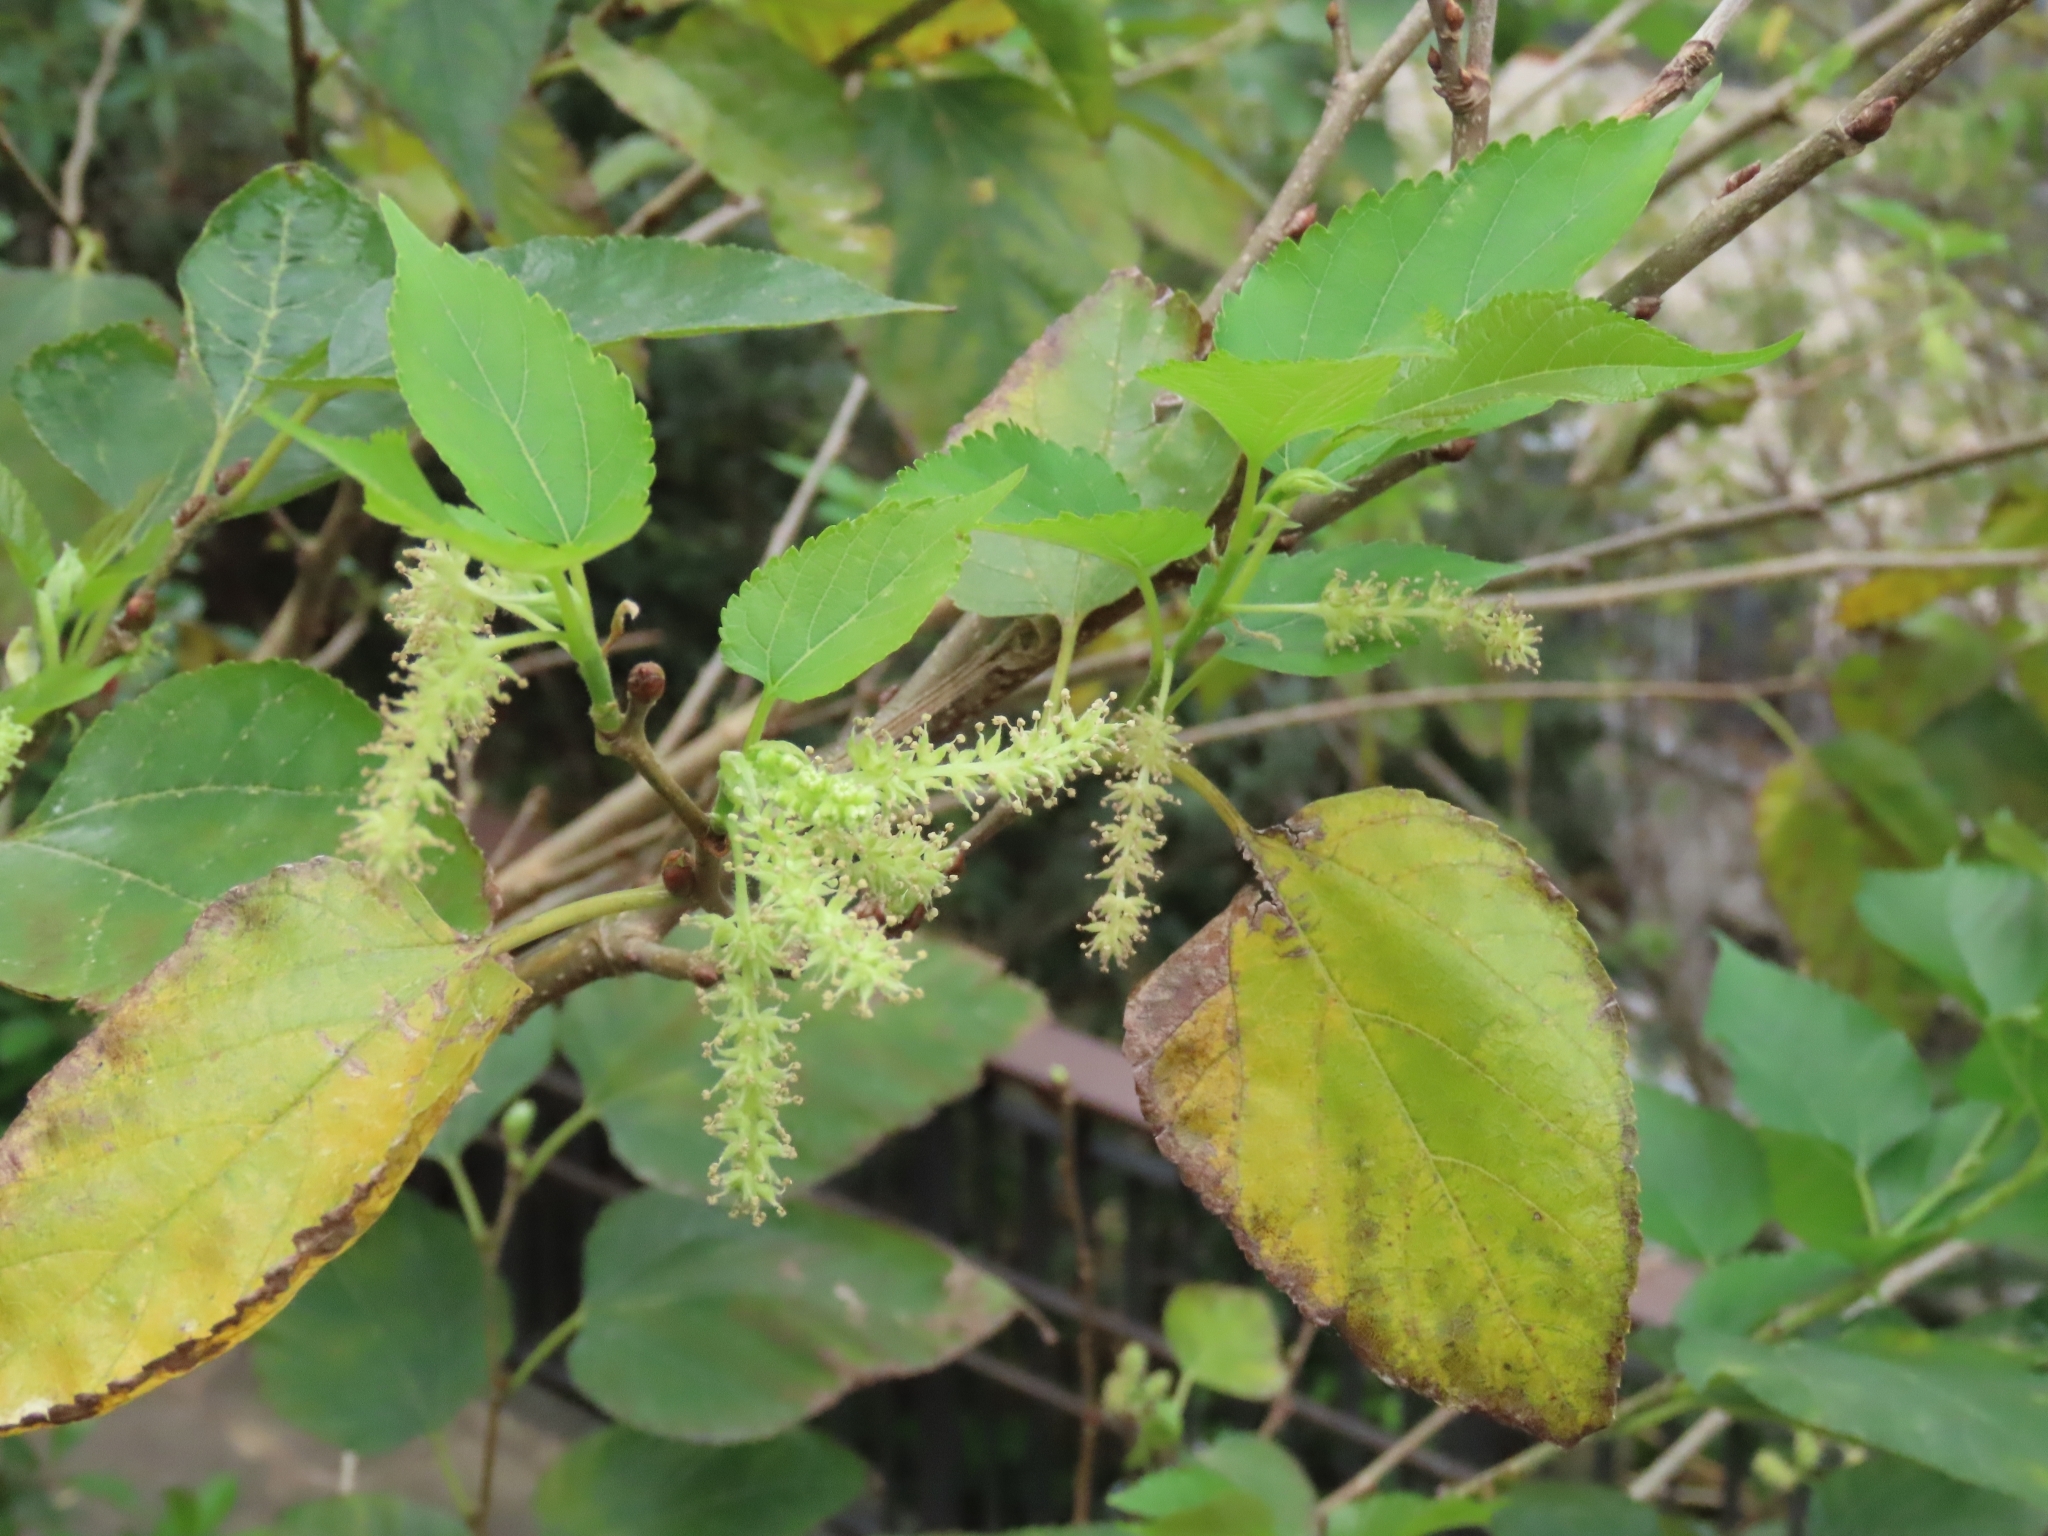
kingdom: Plantae
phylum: Tracheophyta
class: Magnoliopsida
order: Rosales
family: Moraceae
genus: Morus
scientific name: Morus indica
